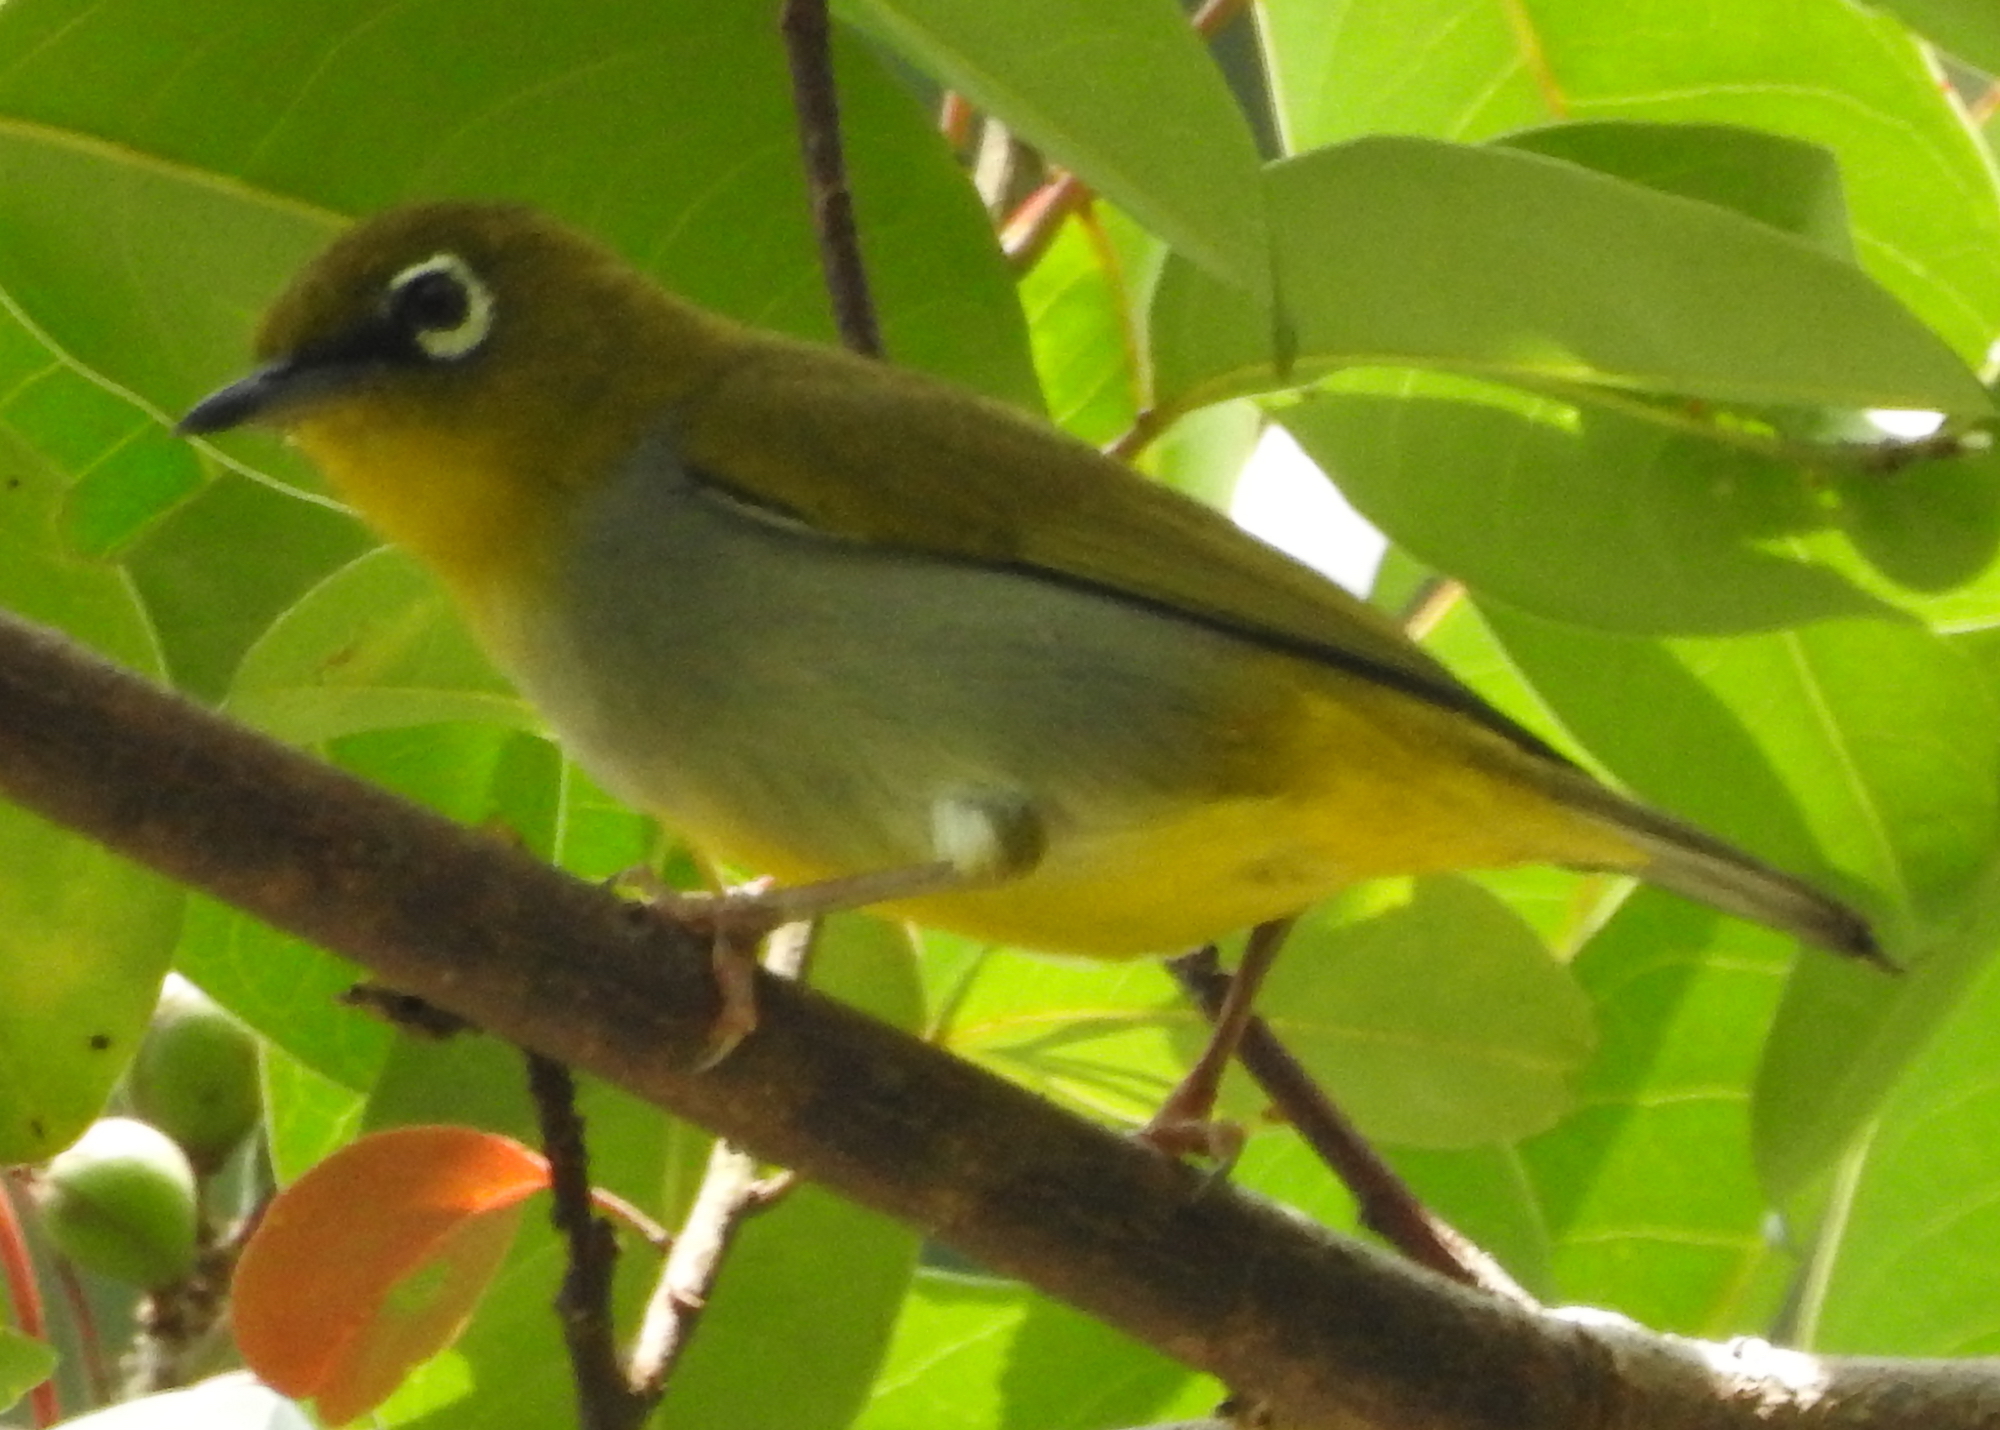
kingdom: Animalia
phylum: Chordata
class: Aves
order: Passeriformes
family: Zosteropidae
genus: Zosterops
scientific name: Zosterops auriventer
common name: Hume's white-eye
